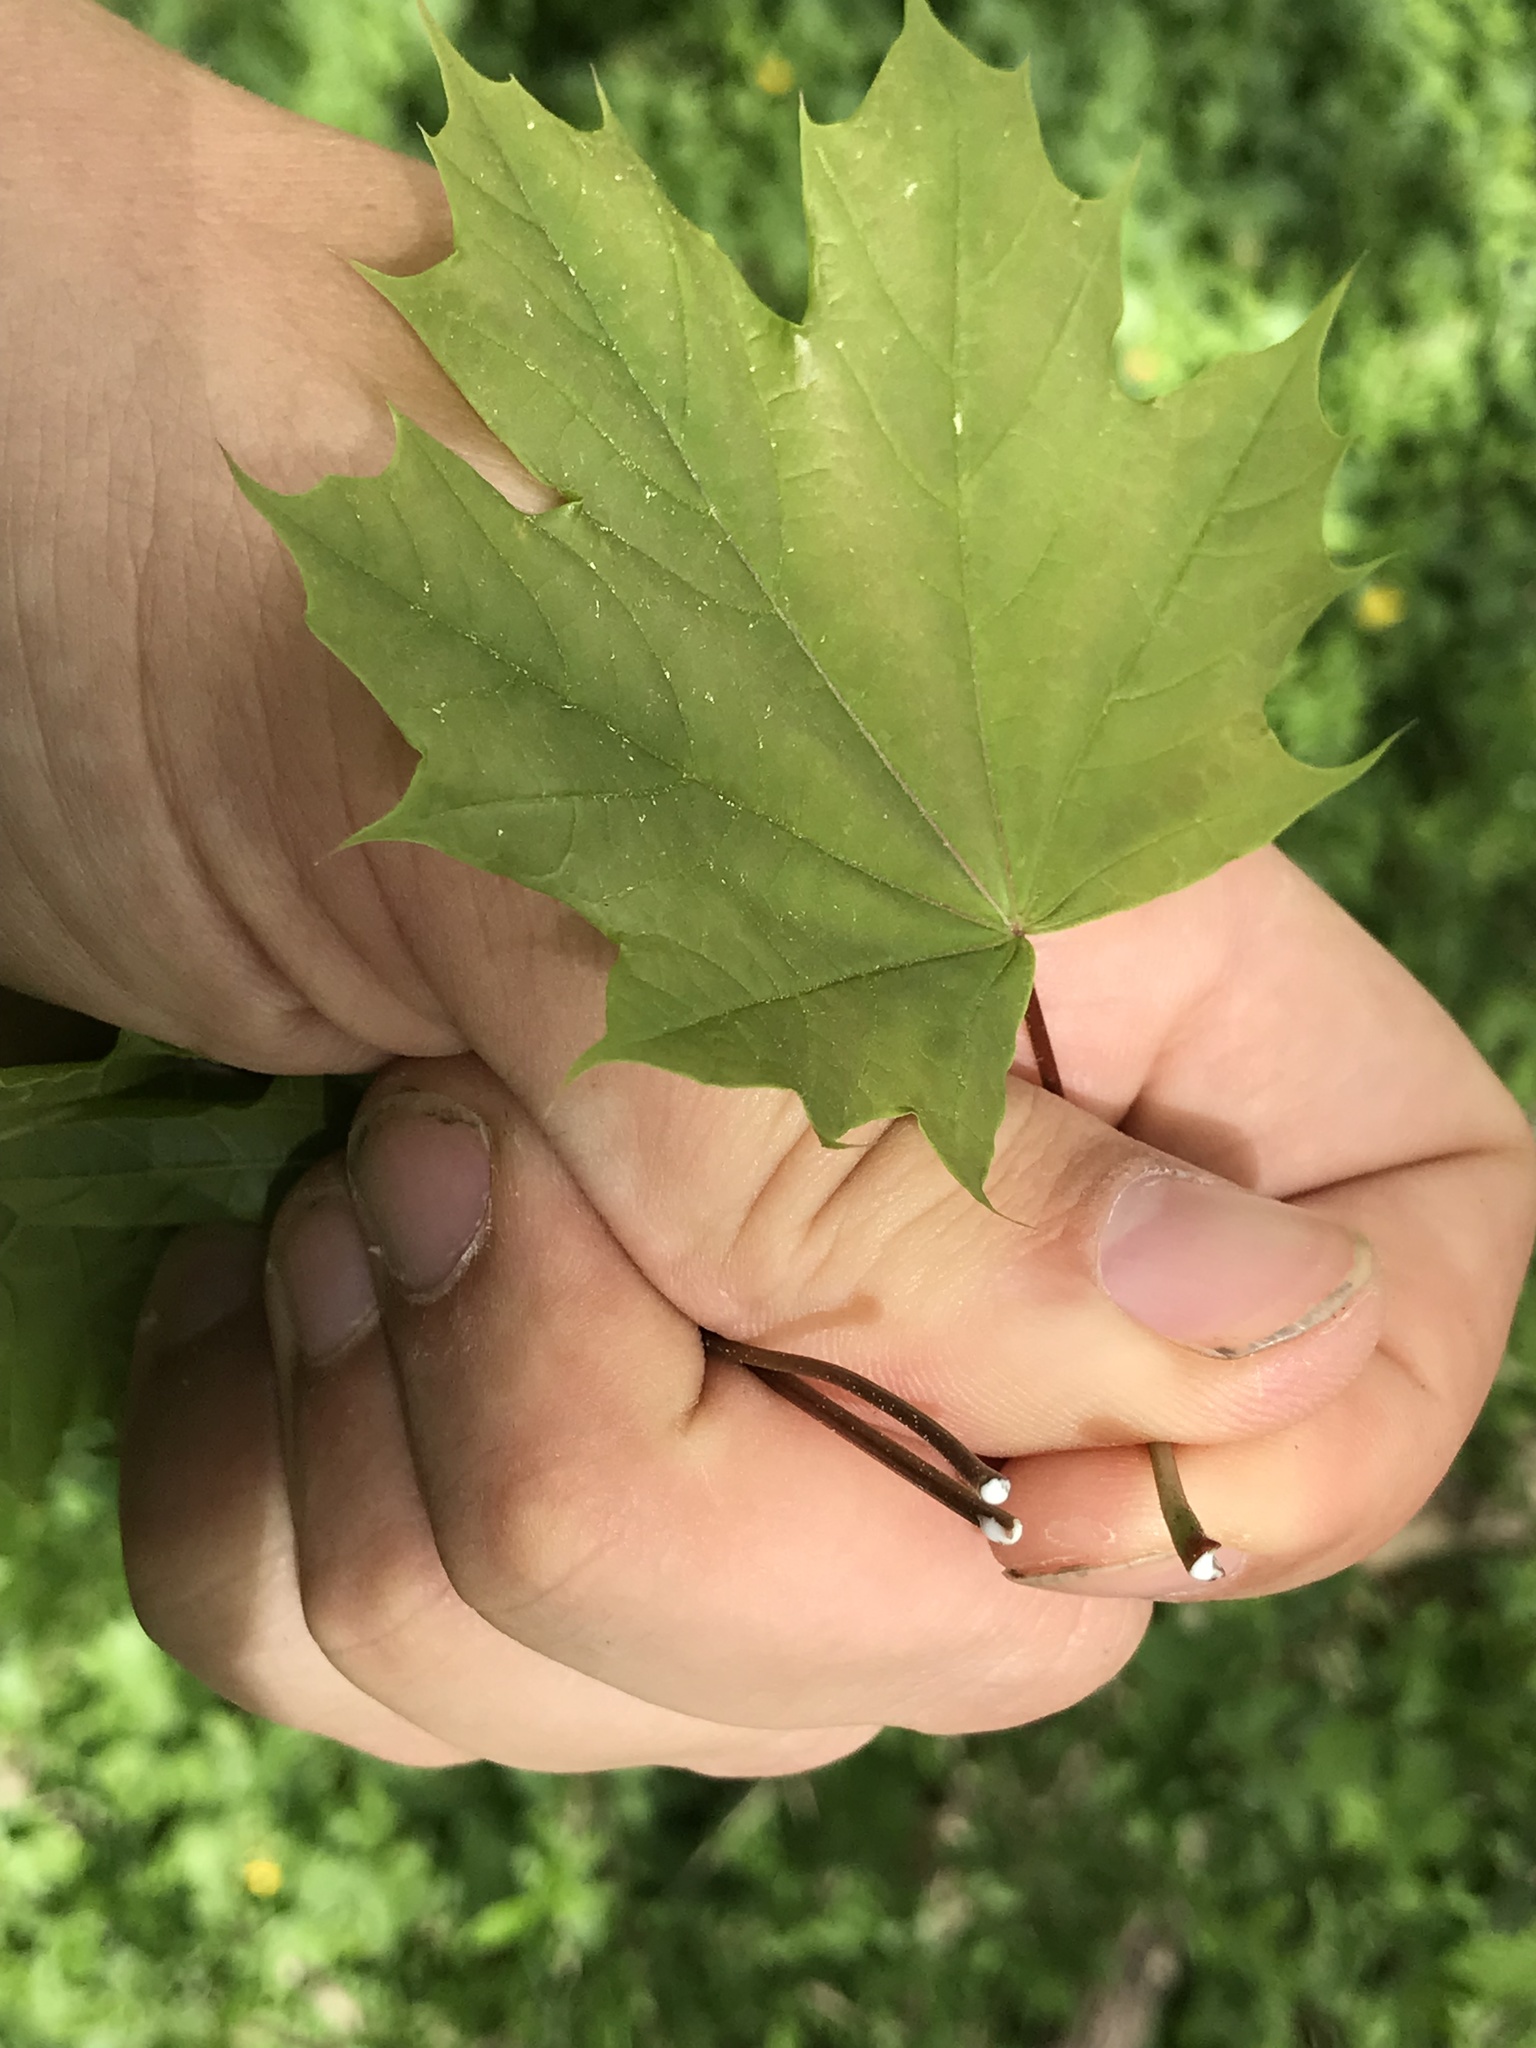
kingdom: Plantae
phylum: Tracheophyta
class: Magnoliopsida
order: Sapindales
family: Sapindaceae
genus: Acer
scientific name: Acer platanoides
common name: Norway maple
